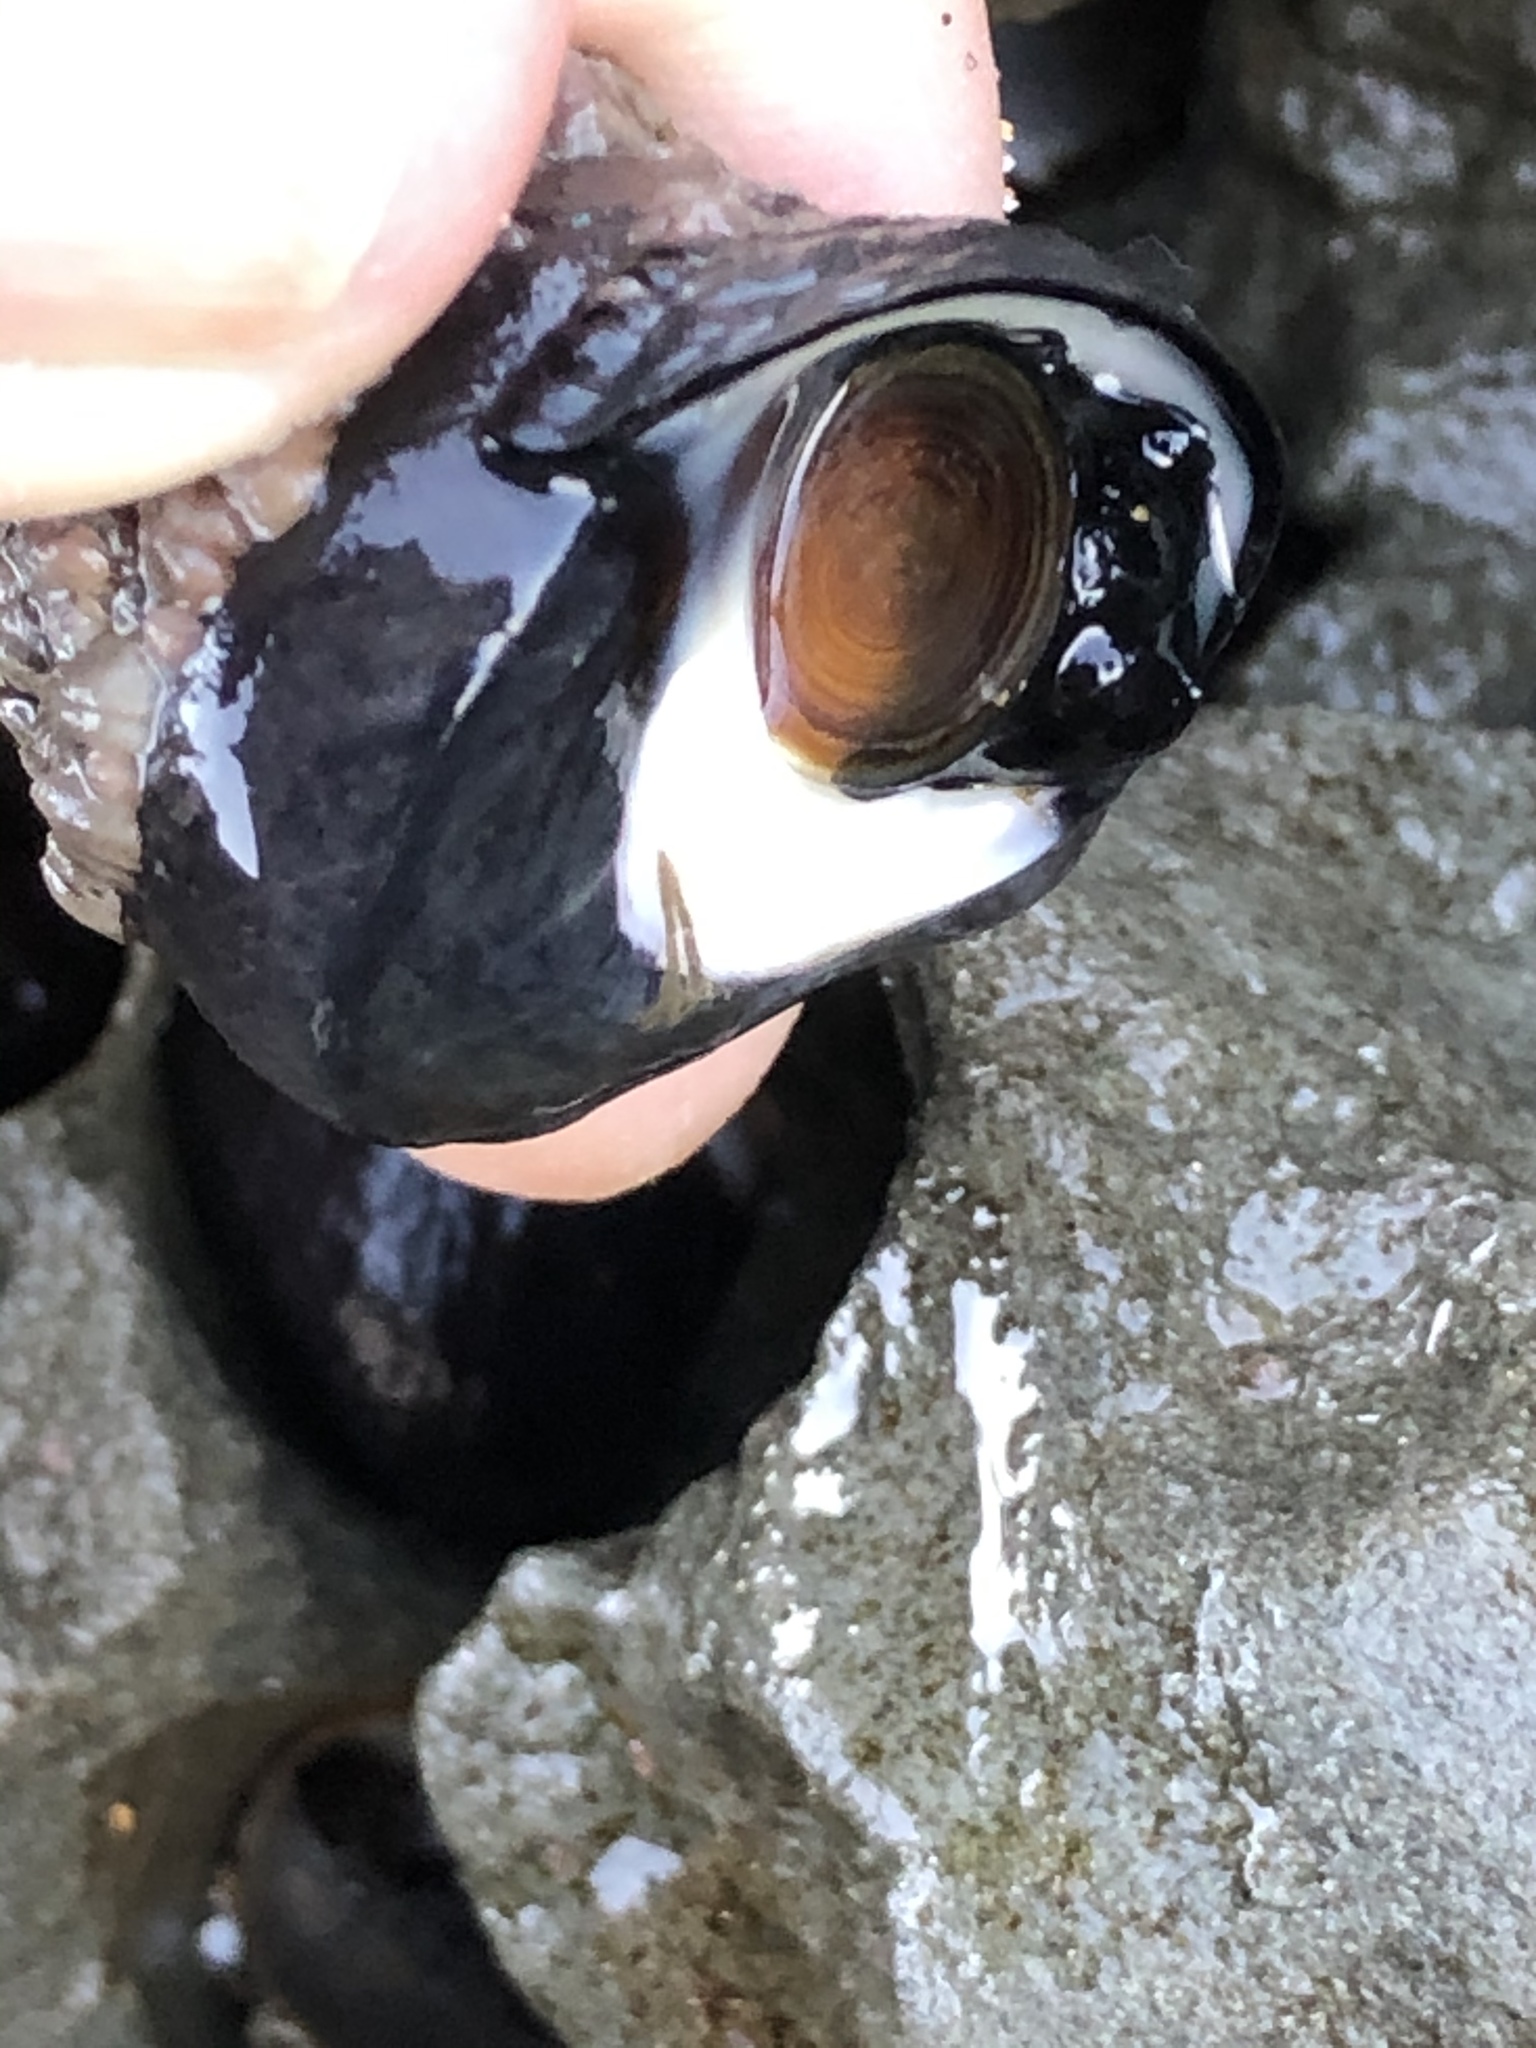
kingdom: Animalia
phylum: Mollusca
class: Gastropoda
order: Trochida
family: Tegulidae
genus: Tegula
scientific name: Tegula funebralis
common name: Black tegula
